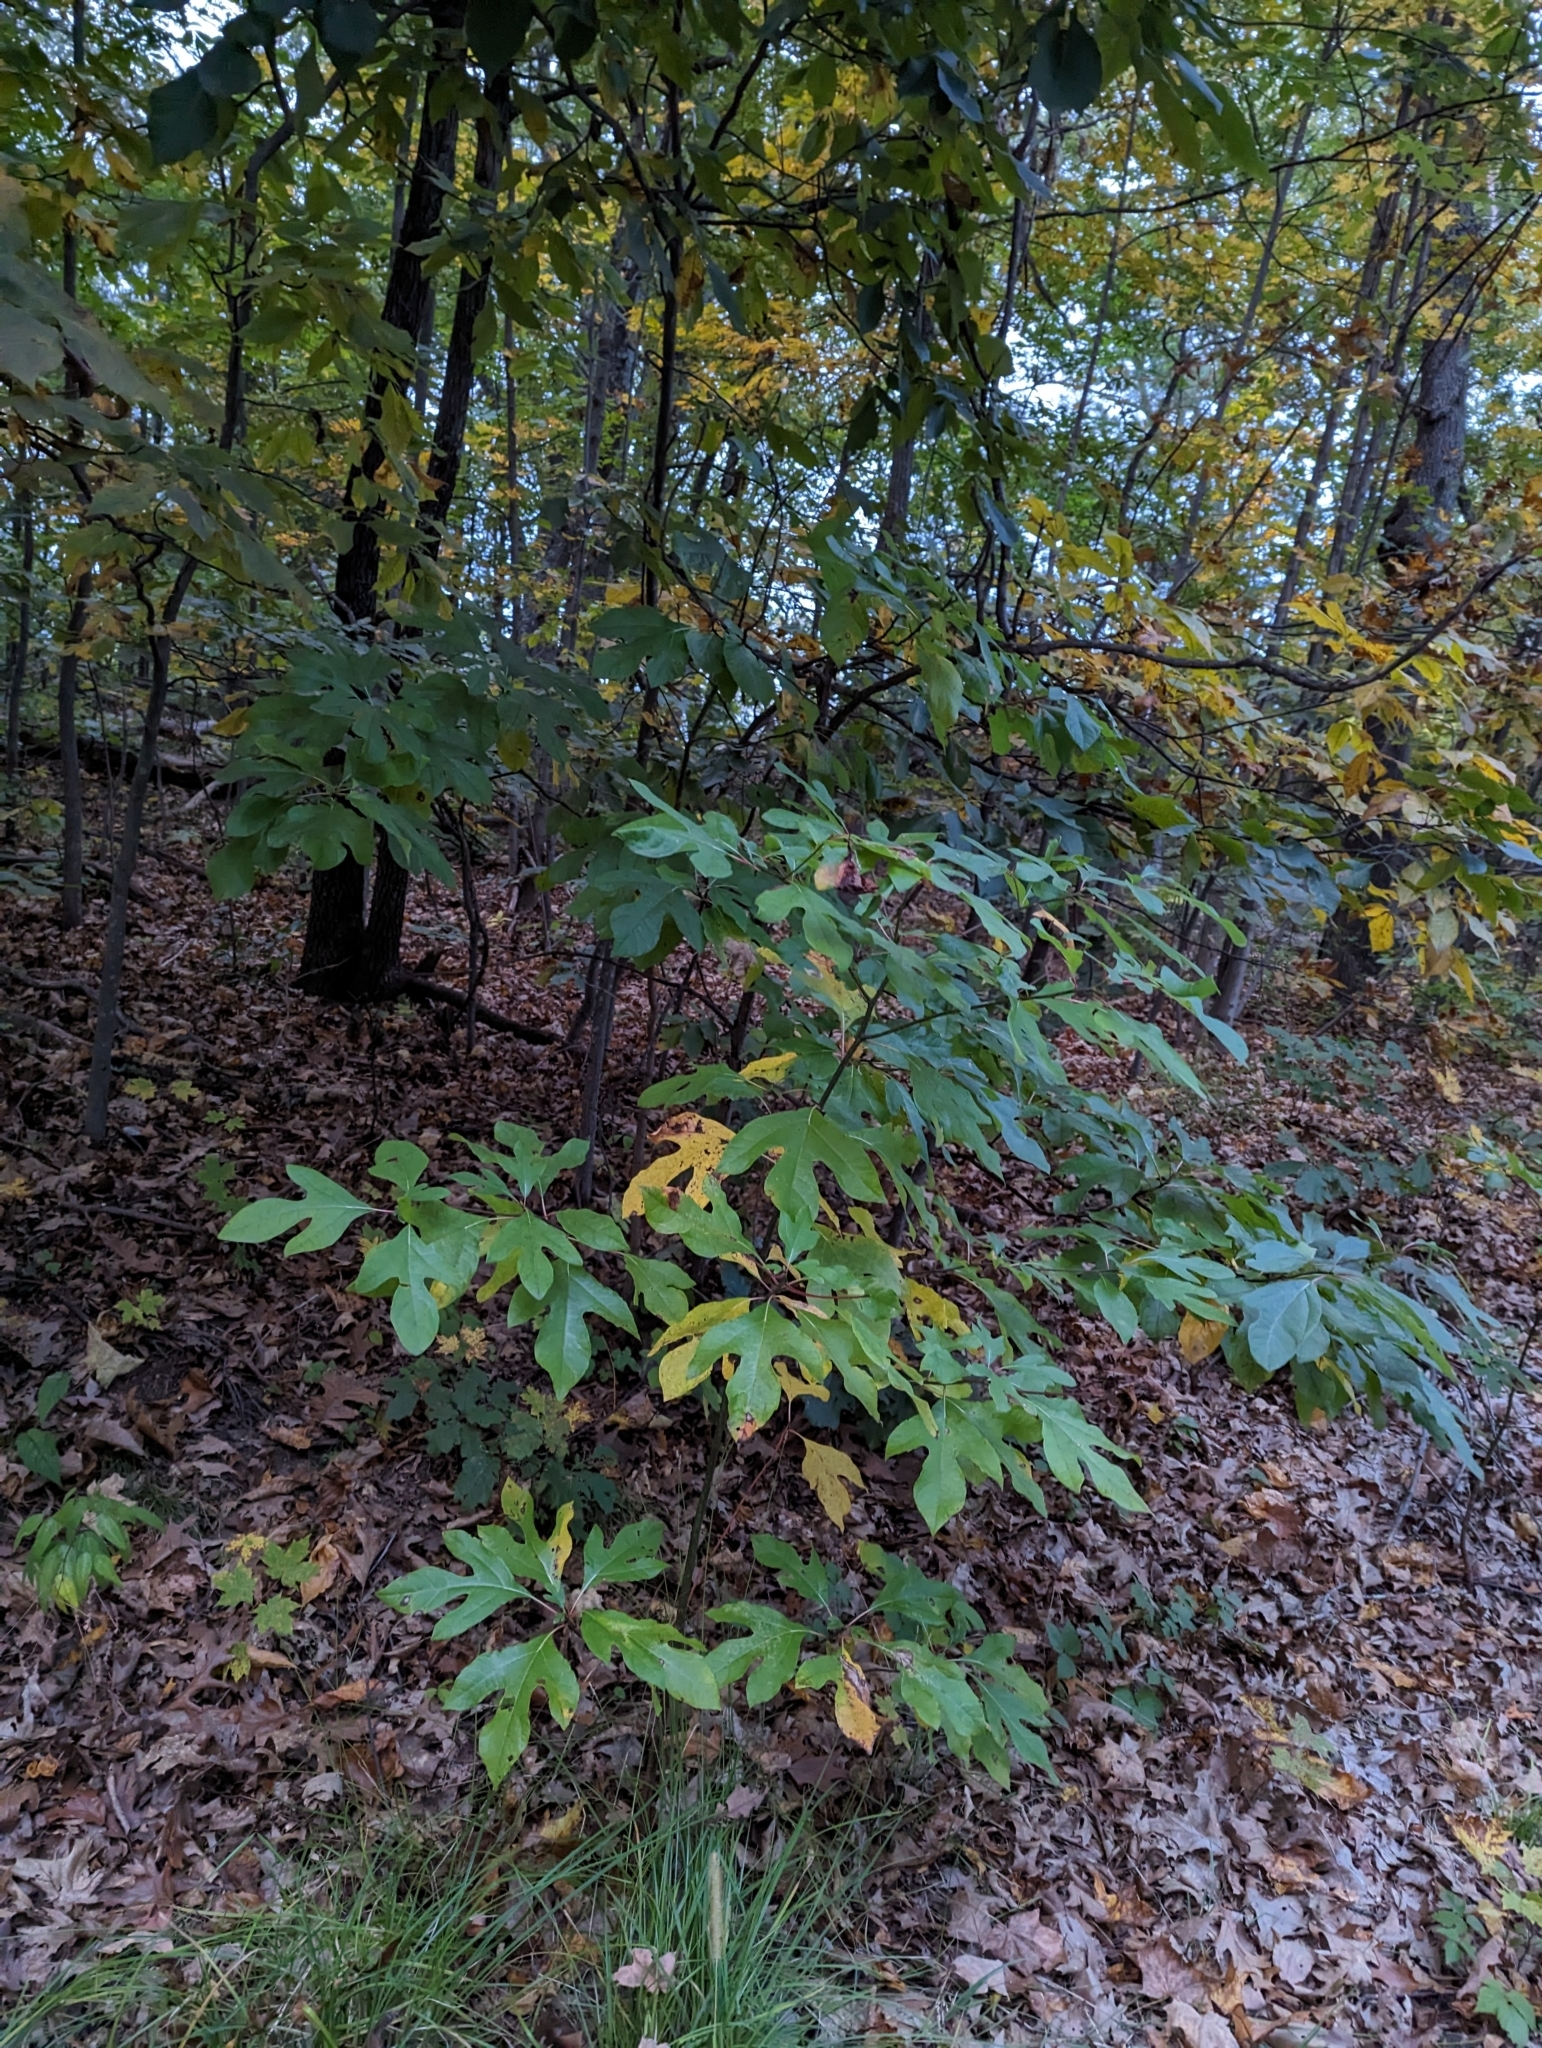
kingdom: Plantae
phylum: Tracheophyta
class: Magnoliopsida
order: Laurales
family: Lauraceae
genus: Sassafras
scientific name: Sassafras albidum
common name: Sassafras
